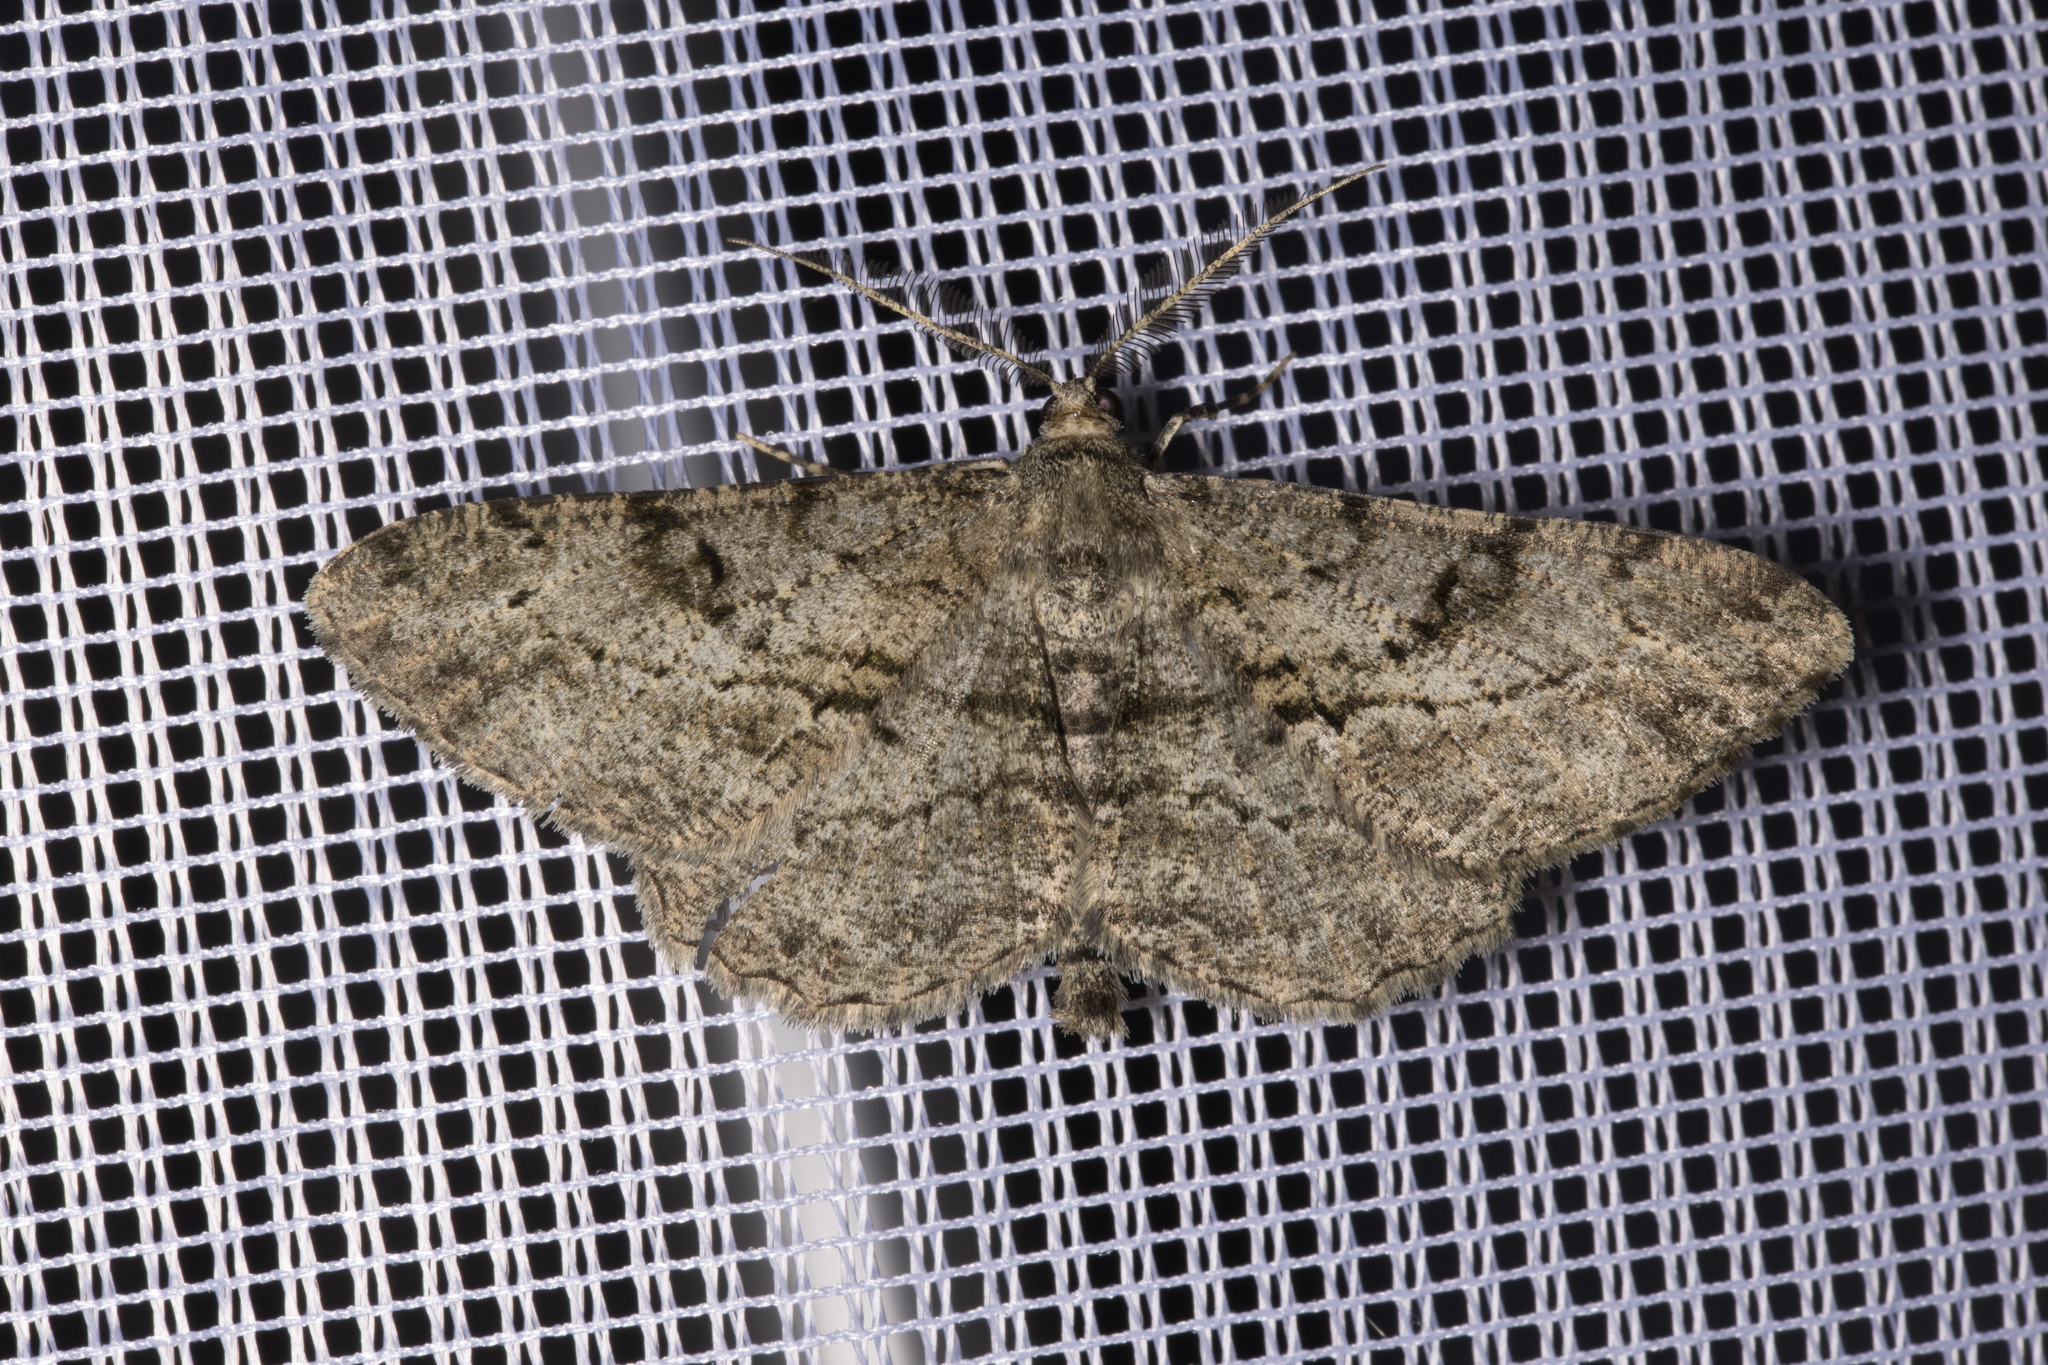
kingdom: Animalia
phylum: Arthropoda
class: Insecta
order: Lepidoptera
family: Geometridae
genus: Peribatodes
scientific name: Peribatodes rhomboidaria
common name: Willow beauty
